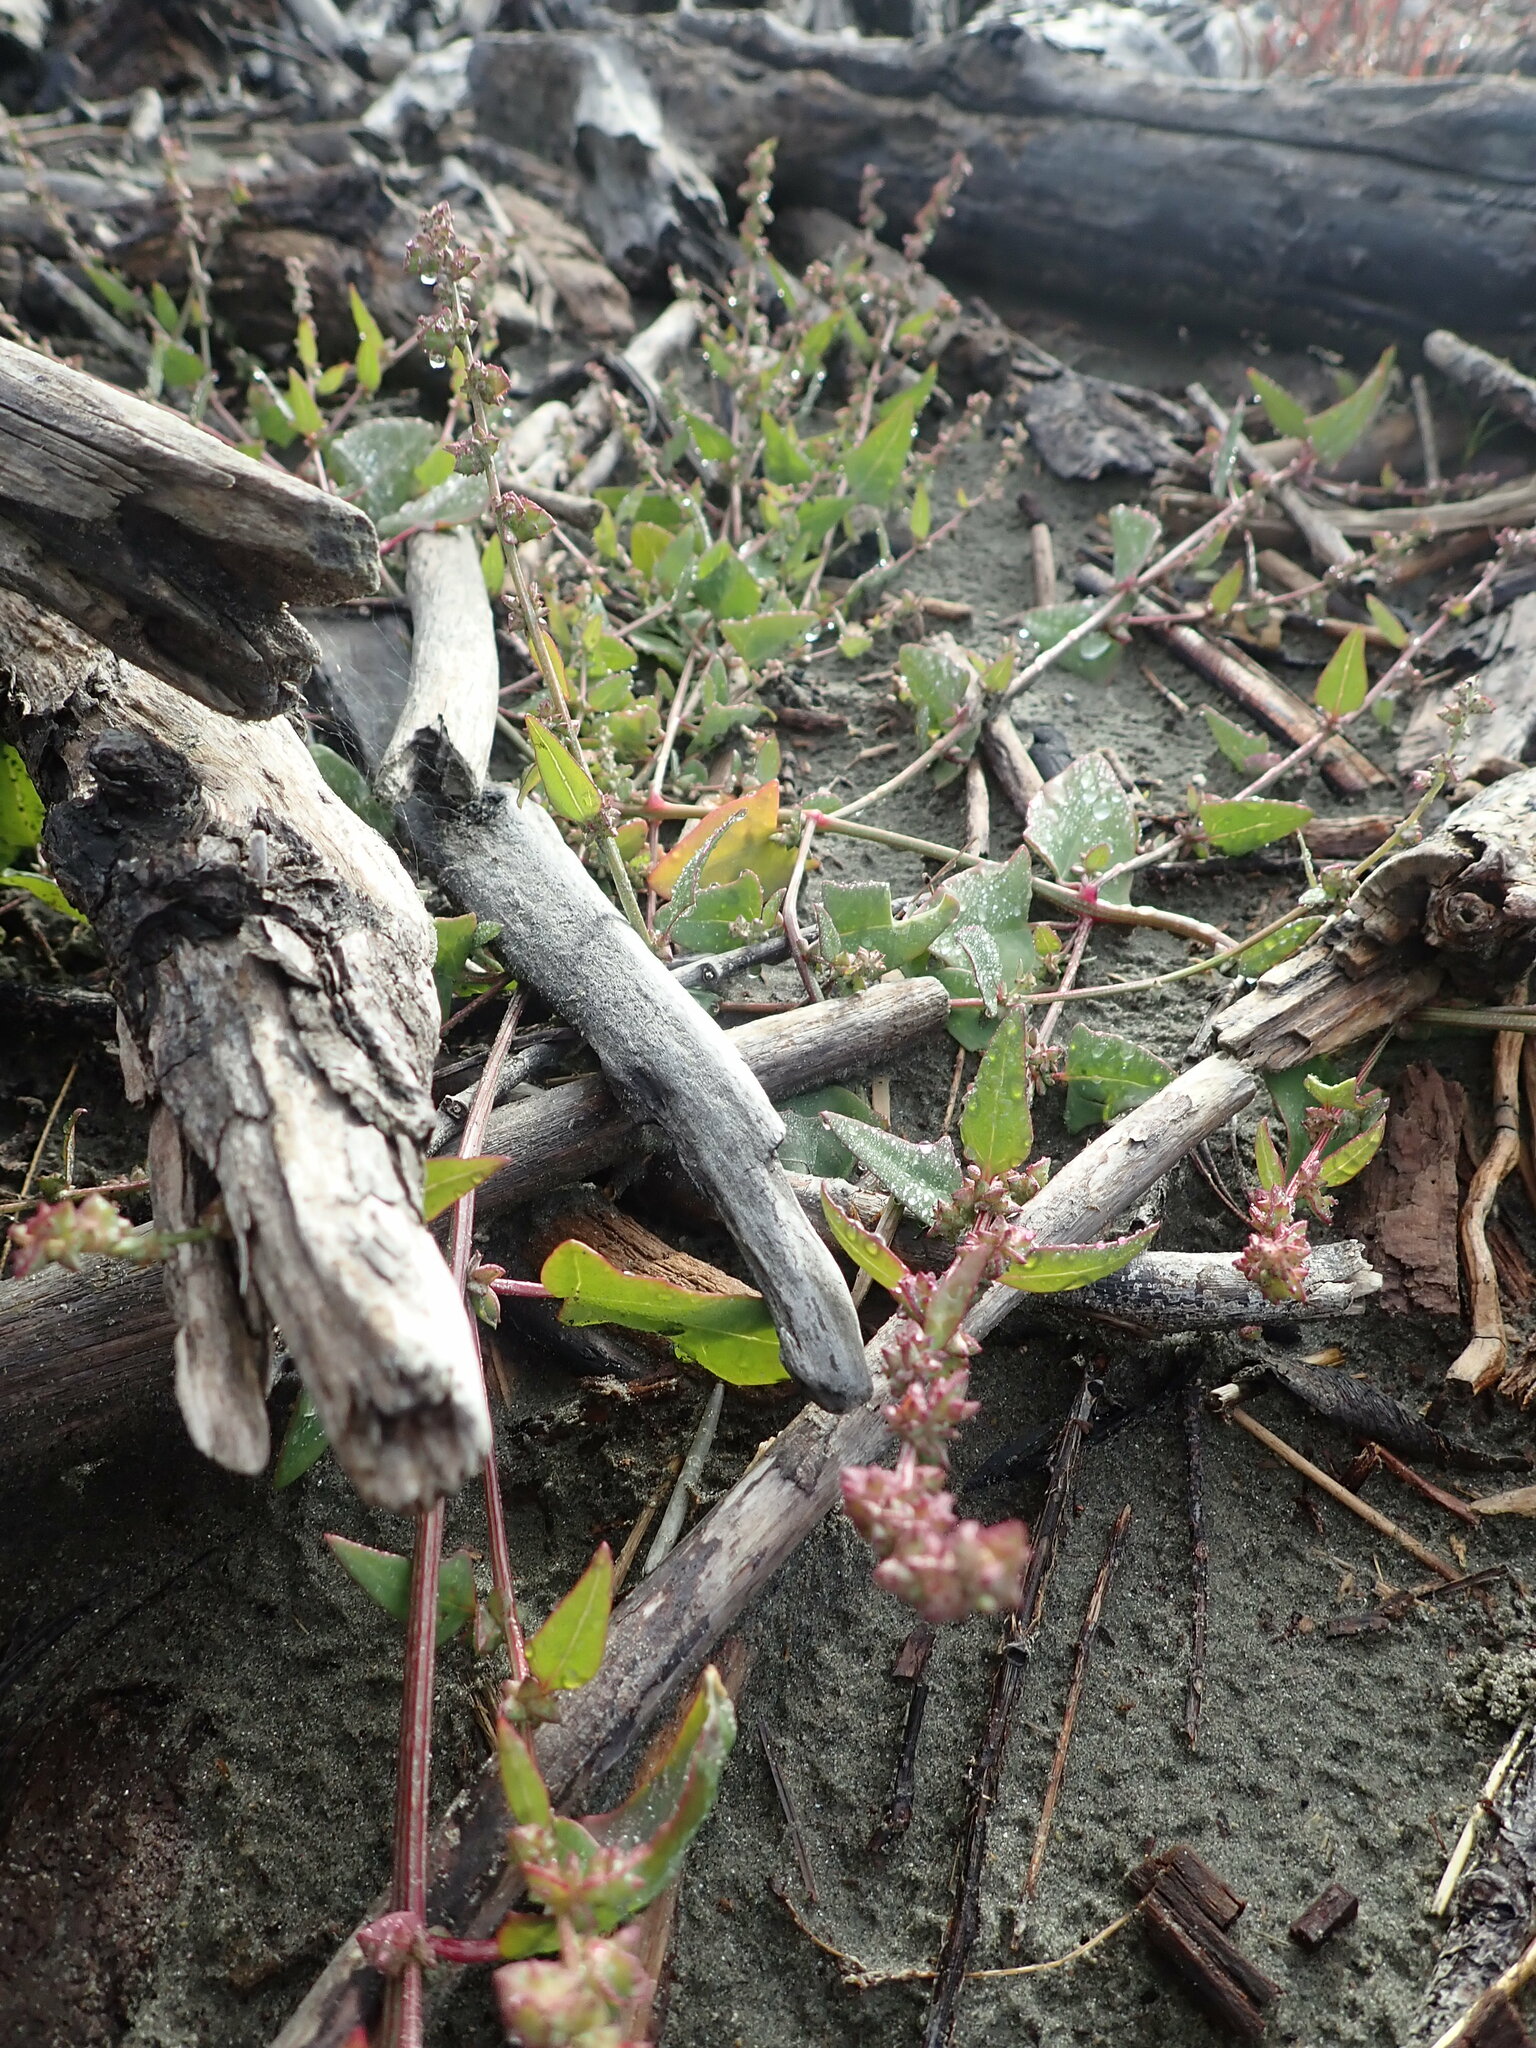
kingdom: Plantae
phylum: Tracheophyta
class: Magnoliopsida
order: Caryophyllales
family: Amaranthaceae
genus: Atriplex
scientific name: Atriplex prostrata
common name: Spear-leaved orache
